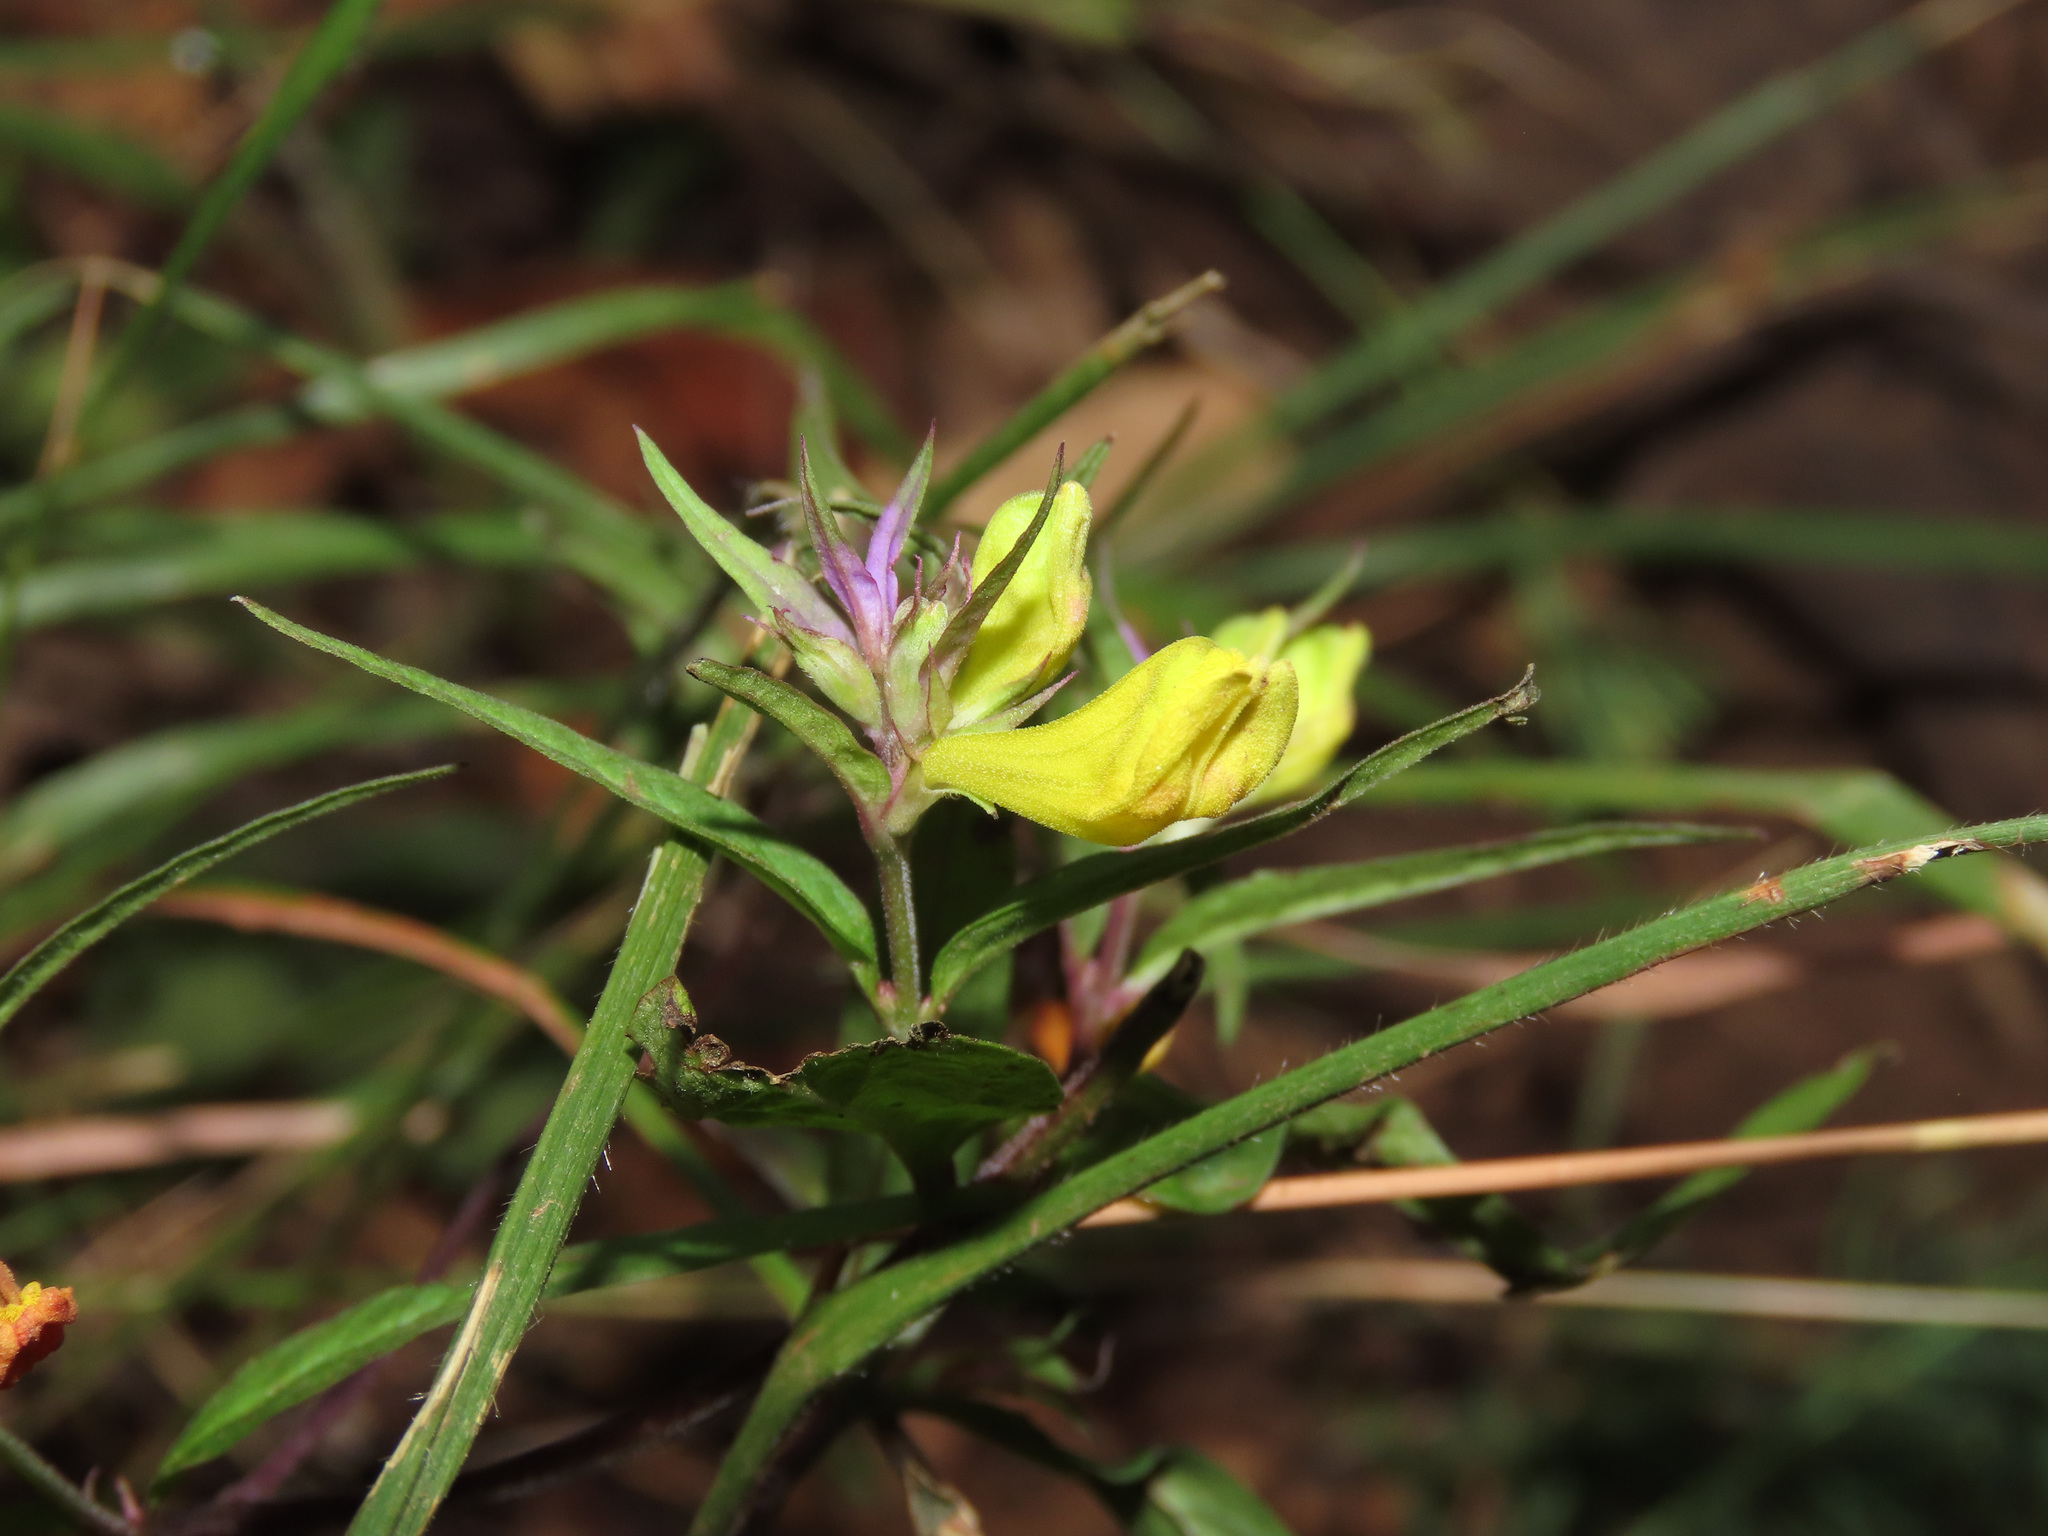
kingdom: Plantae
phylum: Tracheophyta
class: Magnoliopsida
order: Lamiales
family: Orobanchaceae
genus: Melampyrum
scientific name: Melampyrum italicum
